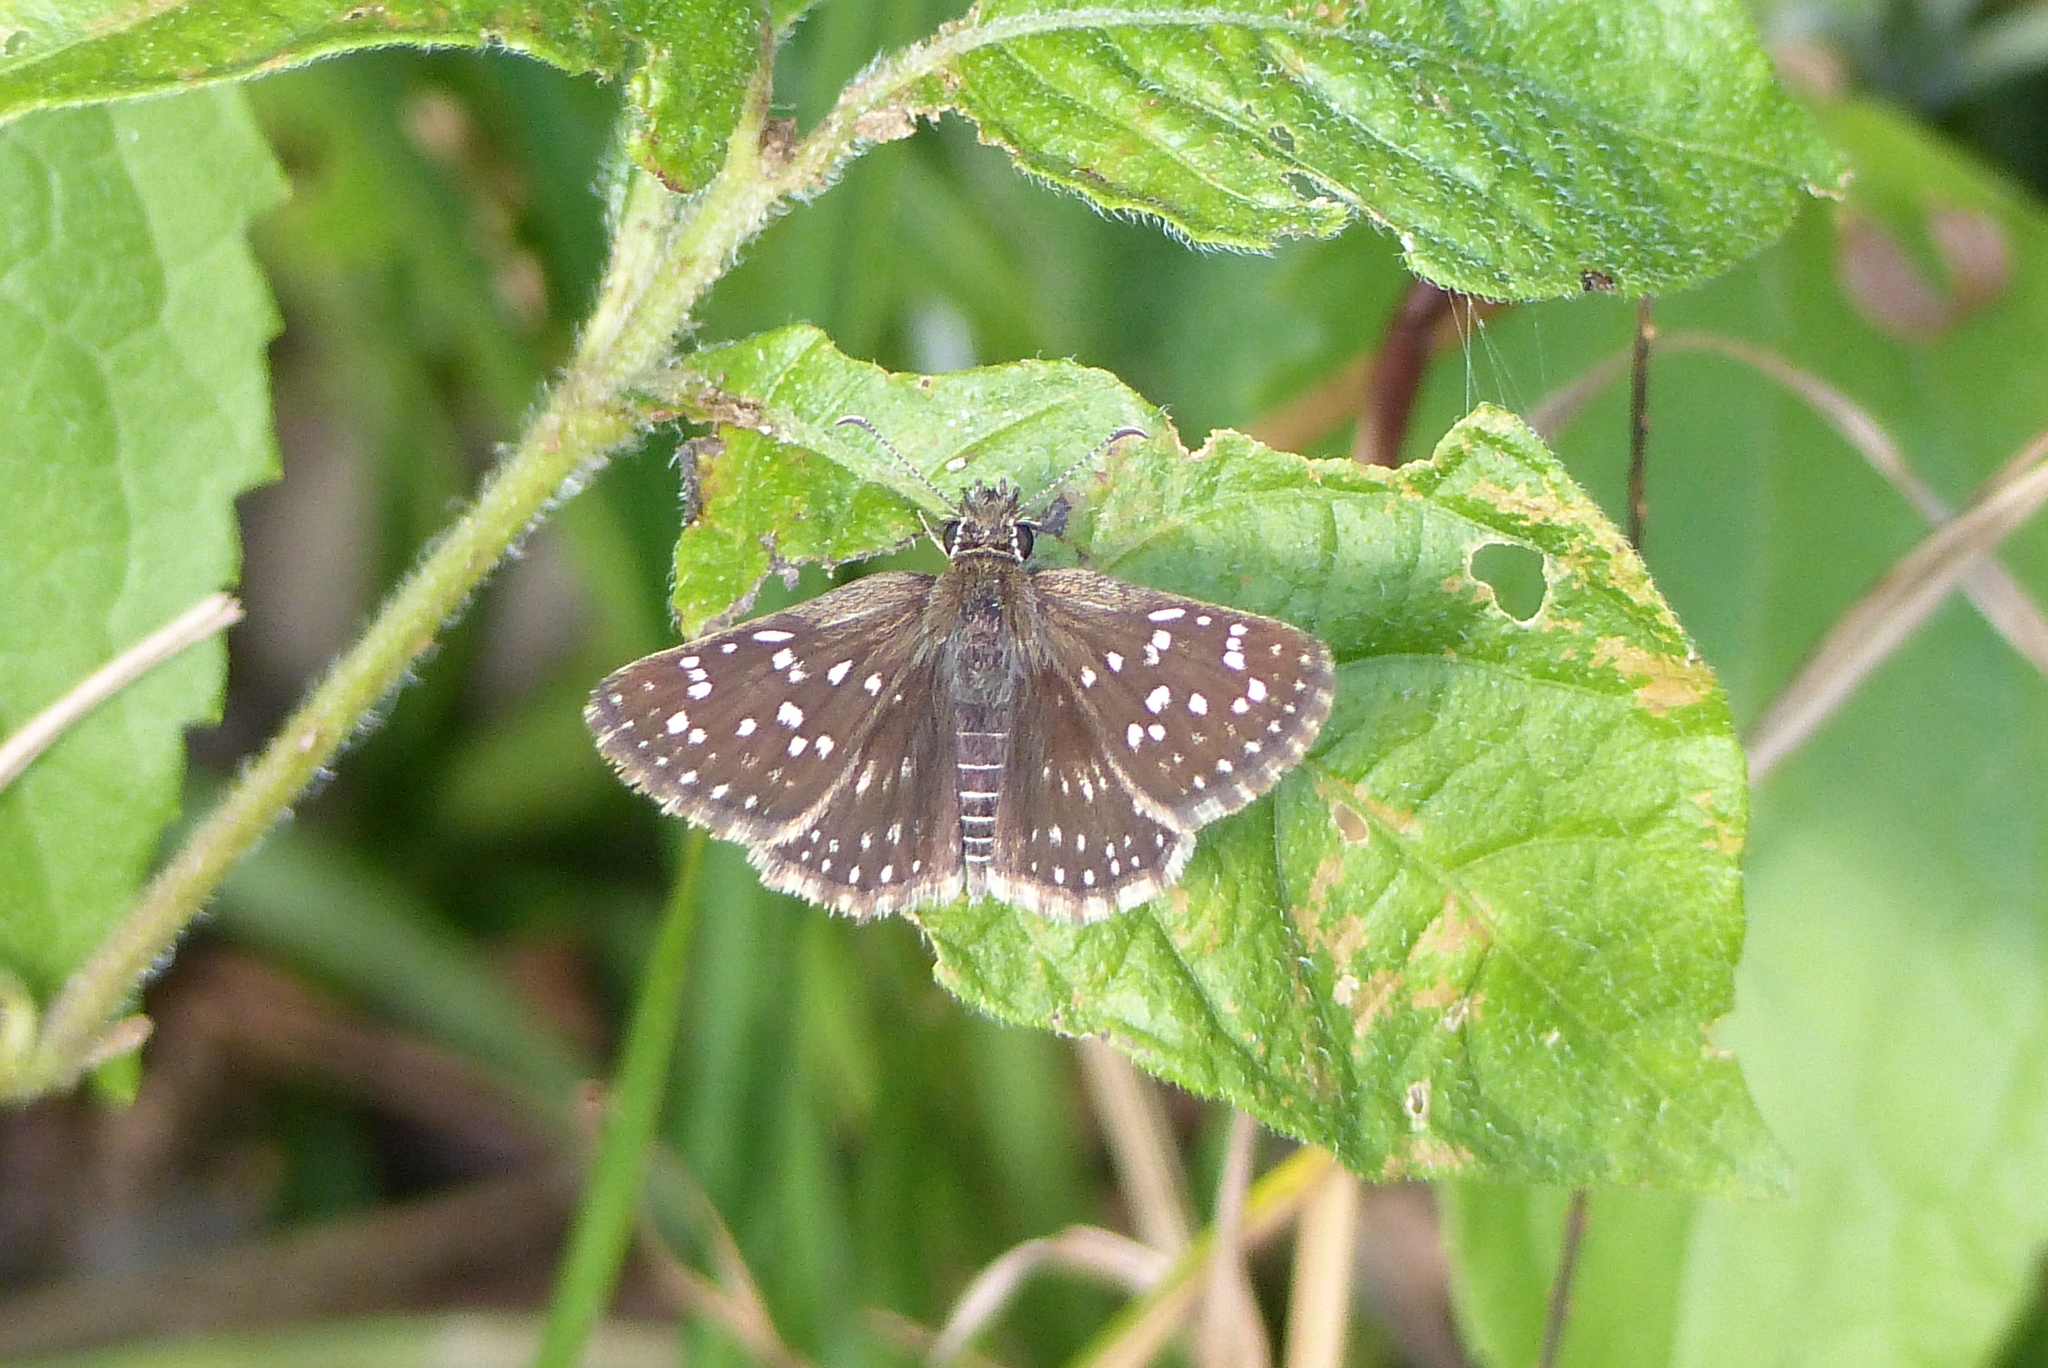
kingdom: Animalia
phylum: Arthropoda
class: Insecta
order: Lepidoptera
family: Hesperiidae
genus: Chirgus
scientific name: Chirgus
